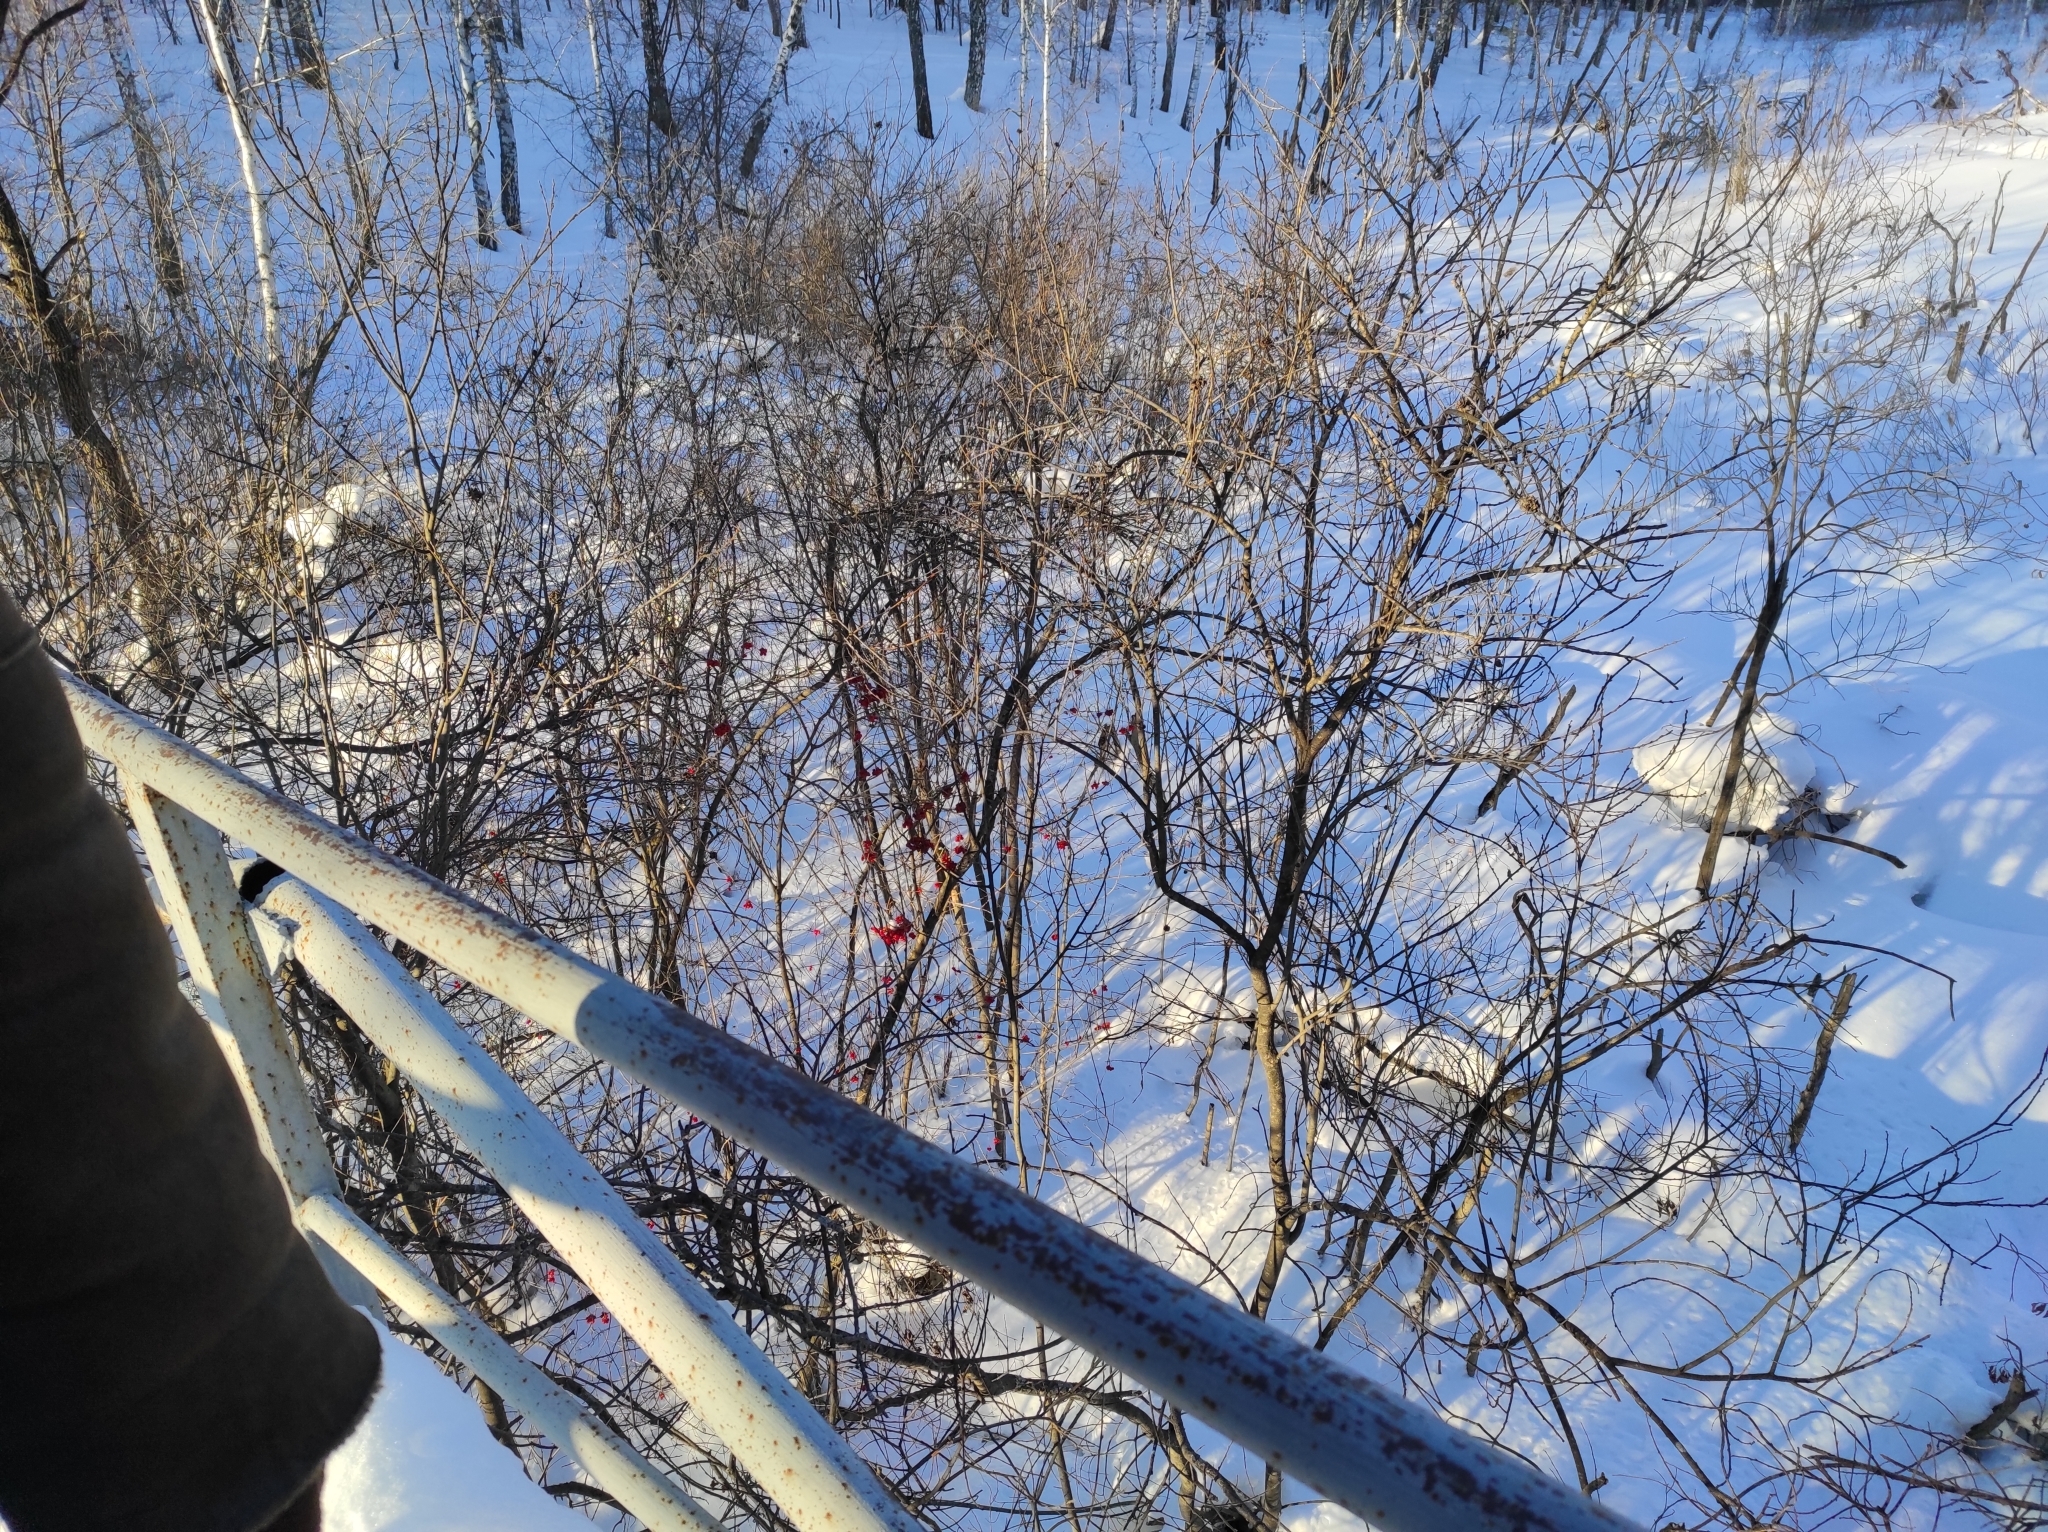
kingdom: Animalia
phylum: Chordata
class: Aves
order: Passeriformes
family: Sittidae
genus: Sitta
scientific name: Sitta europaea
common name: Eurasian nuthatch
